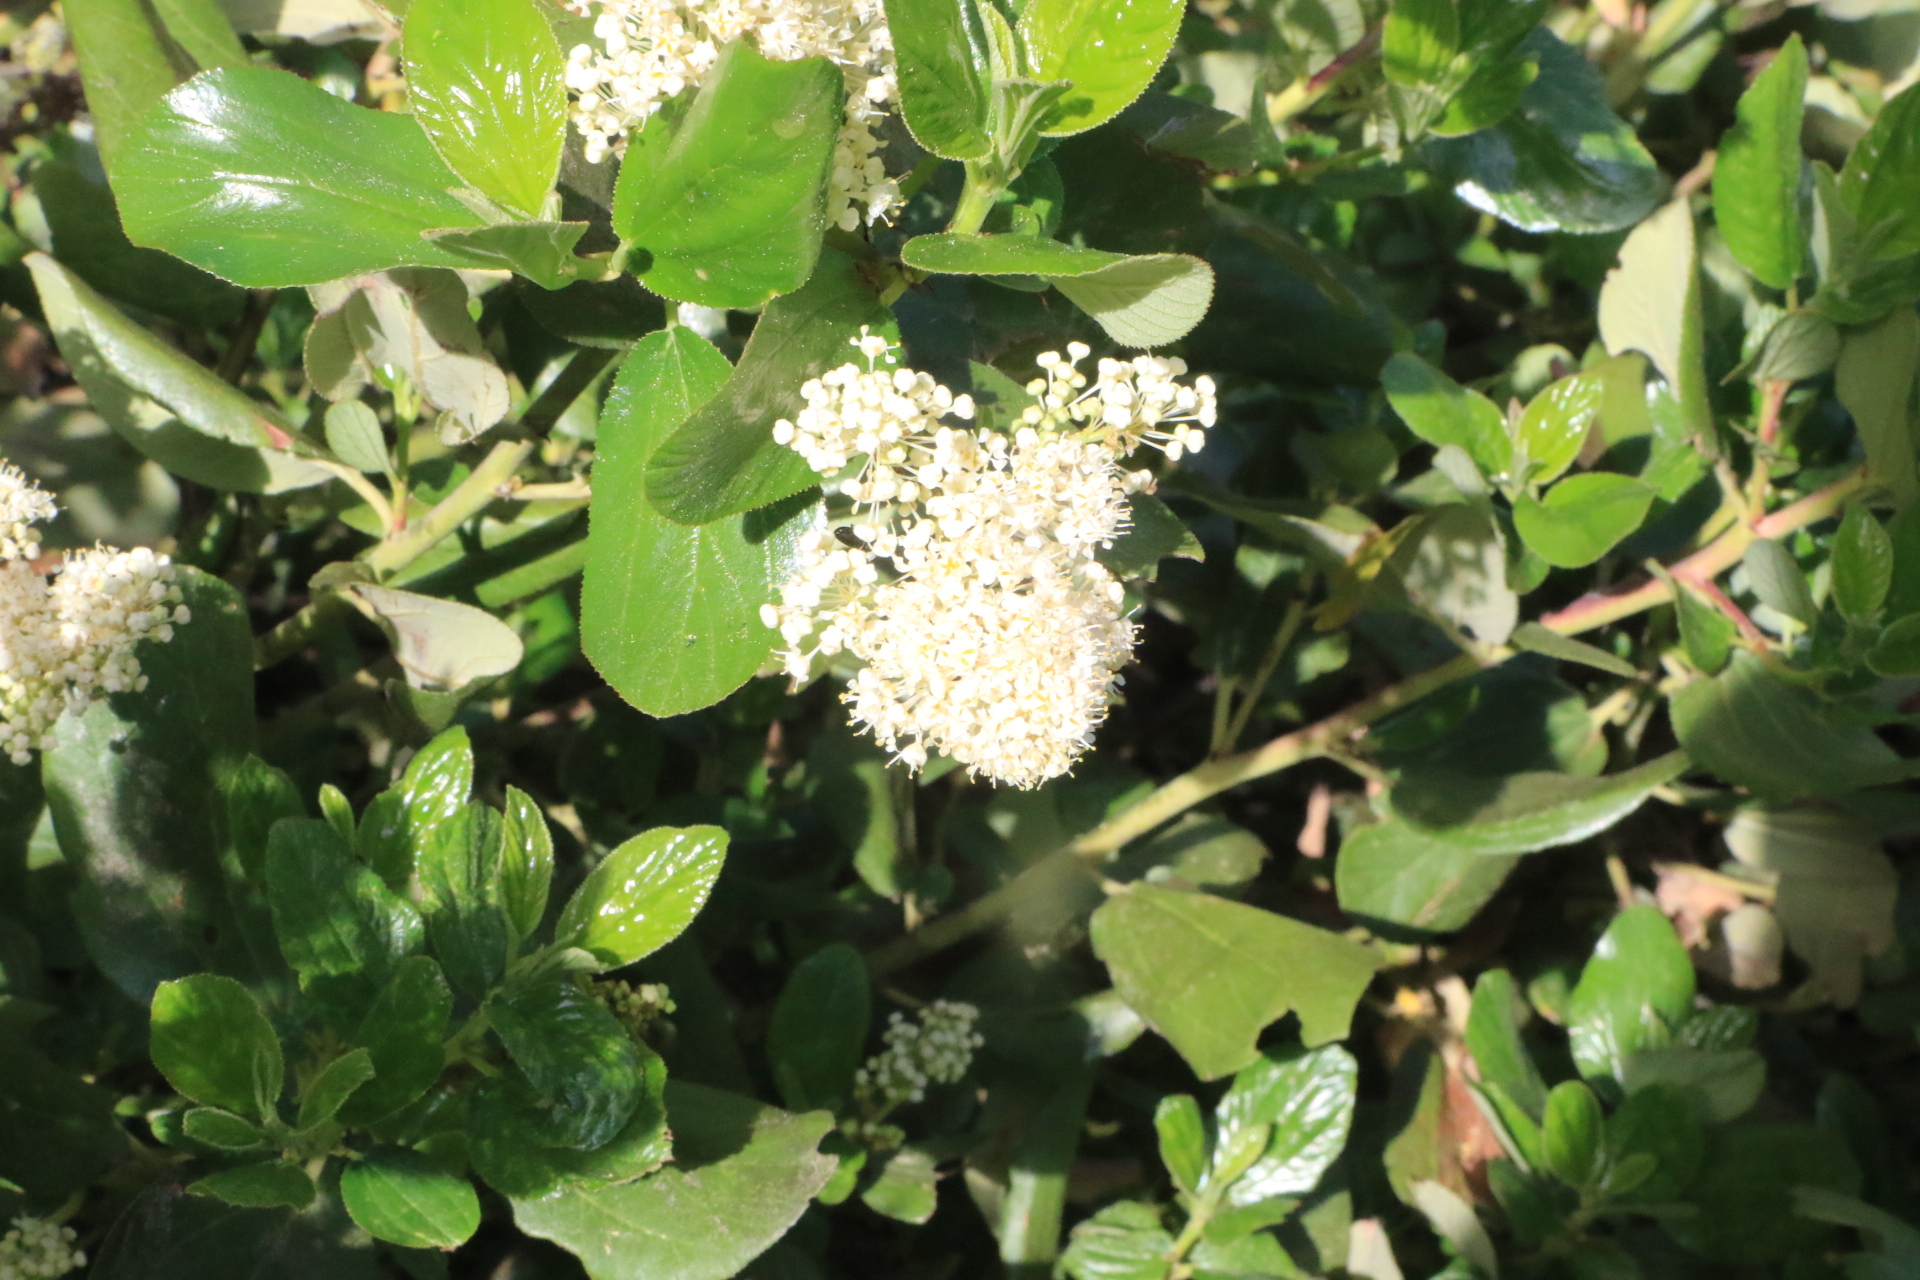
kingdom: Plantae
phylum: Tracheophyta
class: Magnoliopsida
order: Rosales
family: Rhamnaceae
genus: Ceanothus
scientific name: Ceanothus velutinus
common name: Snowbrush
